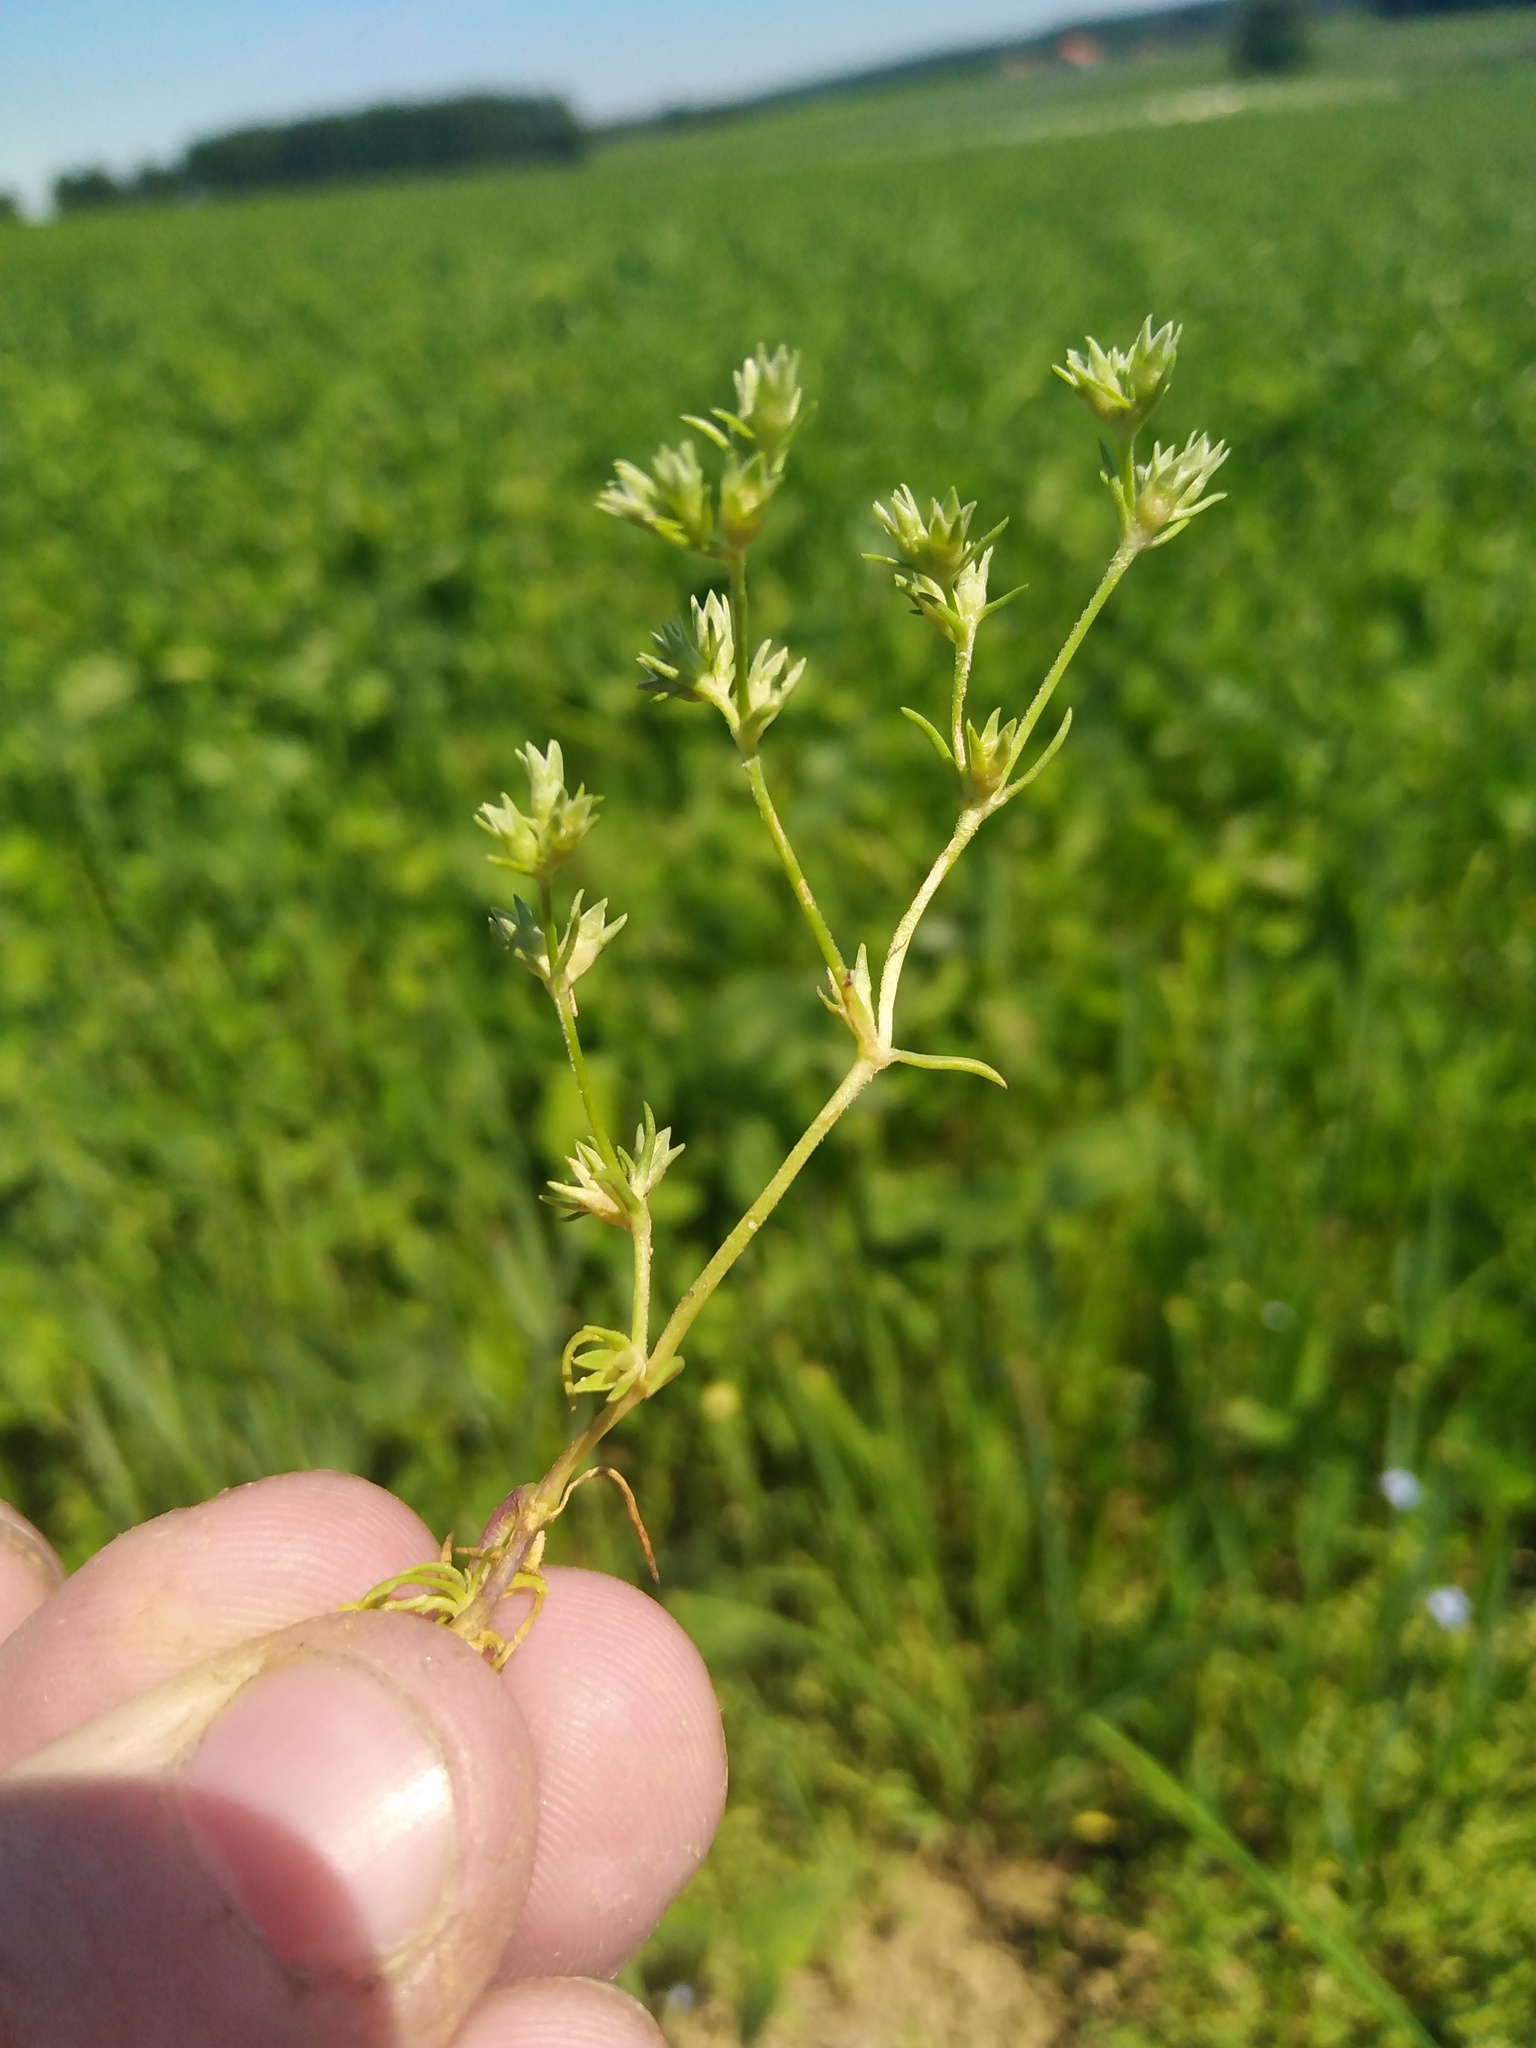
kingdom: Plantae
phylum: Tracheophyta
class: Magnoliopsida
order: Caryophyllales
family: Caryophyllaceae
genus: Scleranthus
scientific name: Scleranthus annuus
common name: Annual knawel
